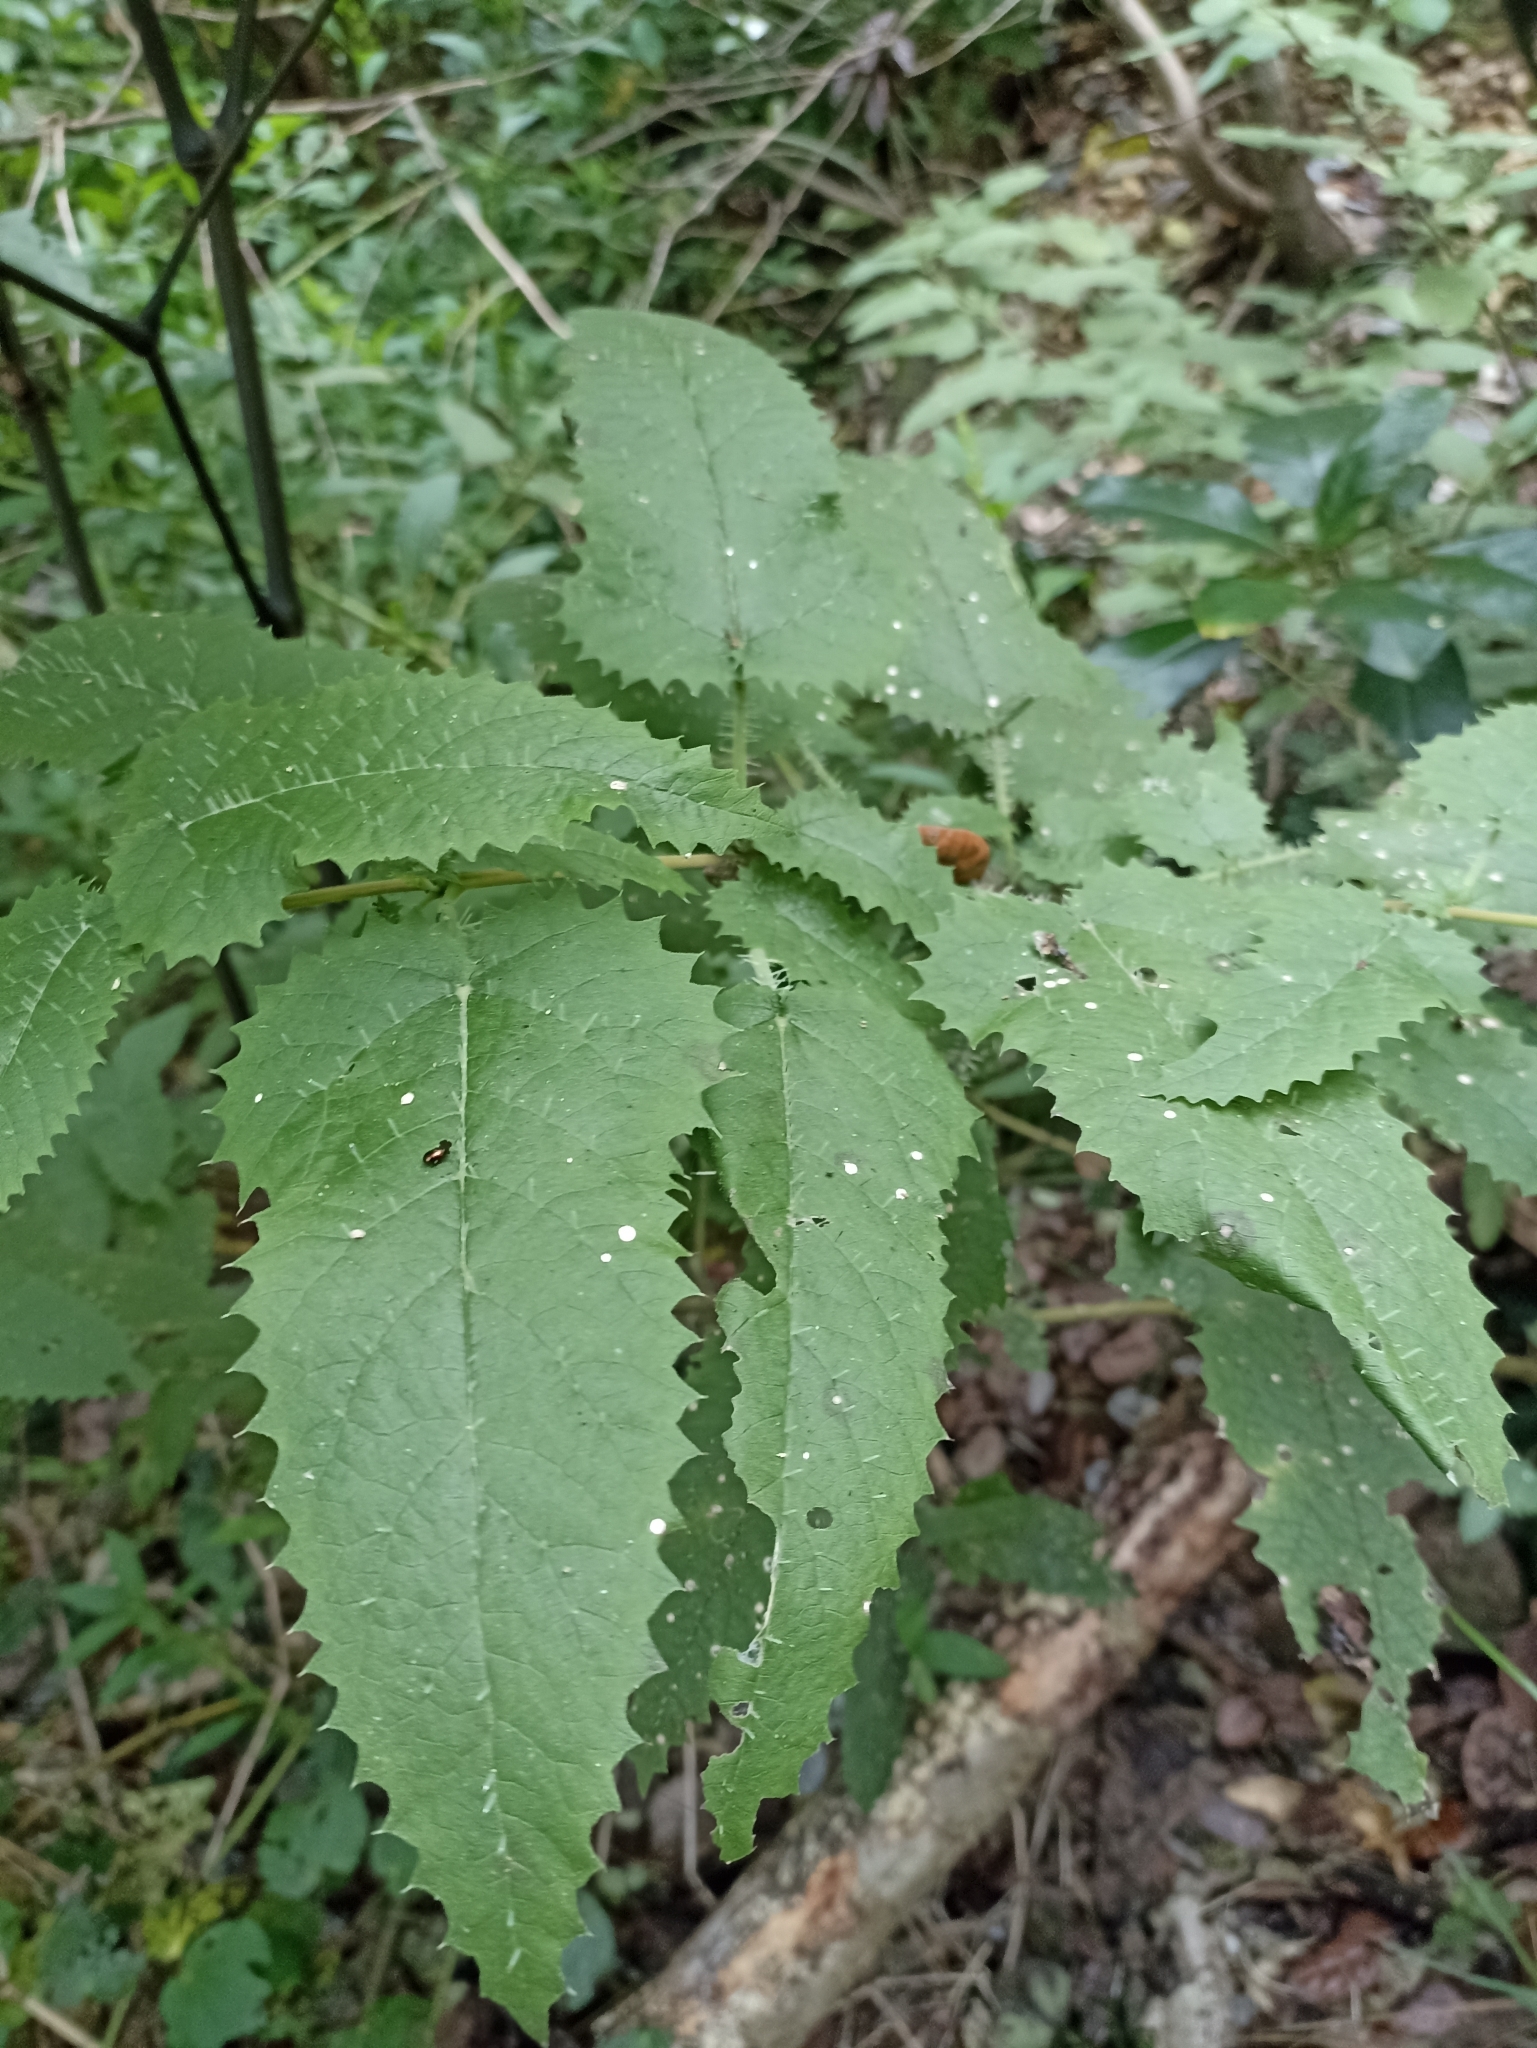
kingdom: Plantae
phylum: Tracheophyta
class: Magnoliopsida
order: Rosales
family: Urticaceae
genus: Urtica
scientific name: Urtica ferox
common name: Tree nettle
